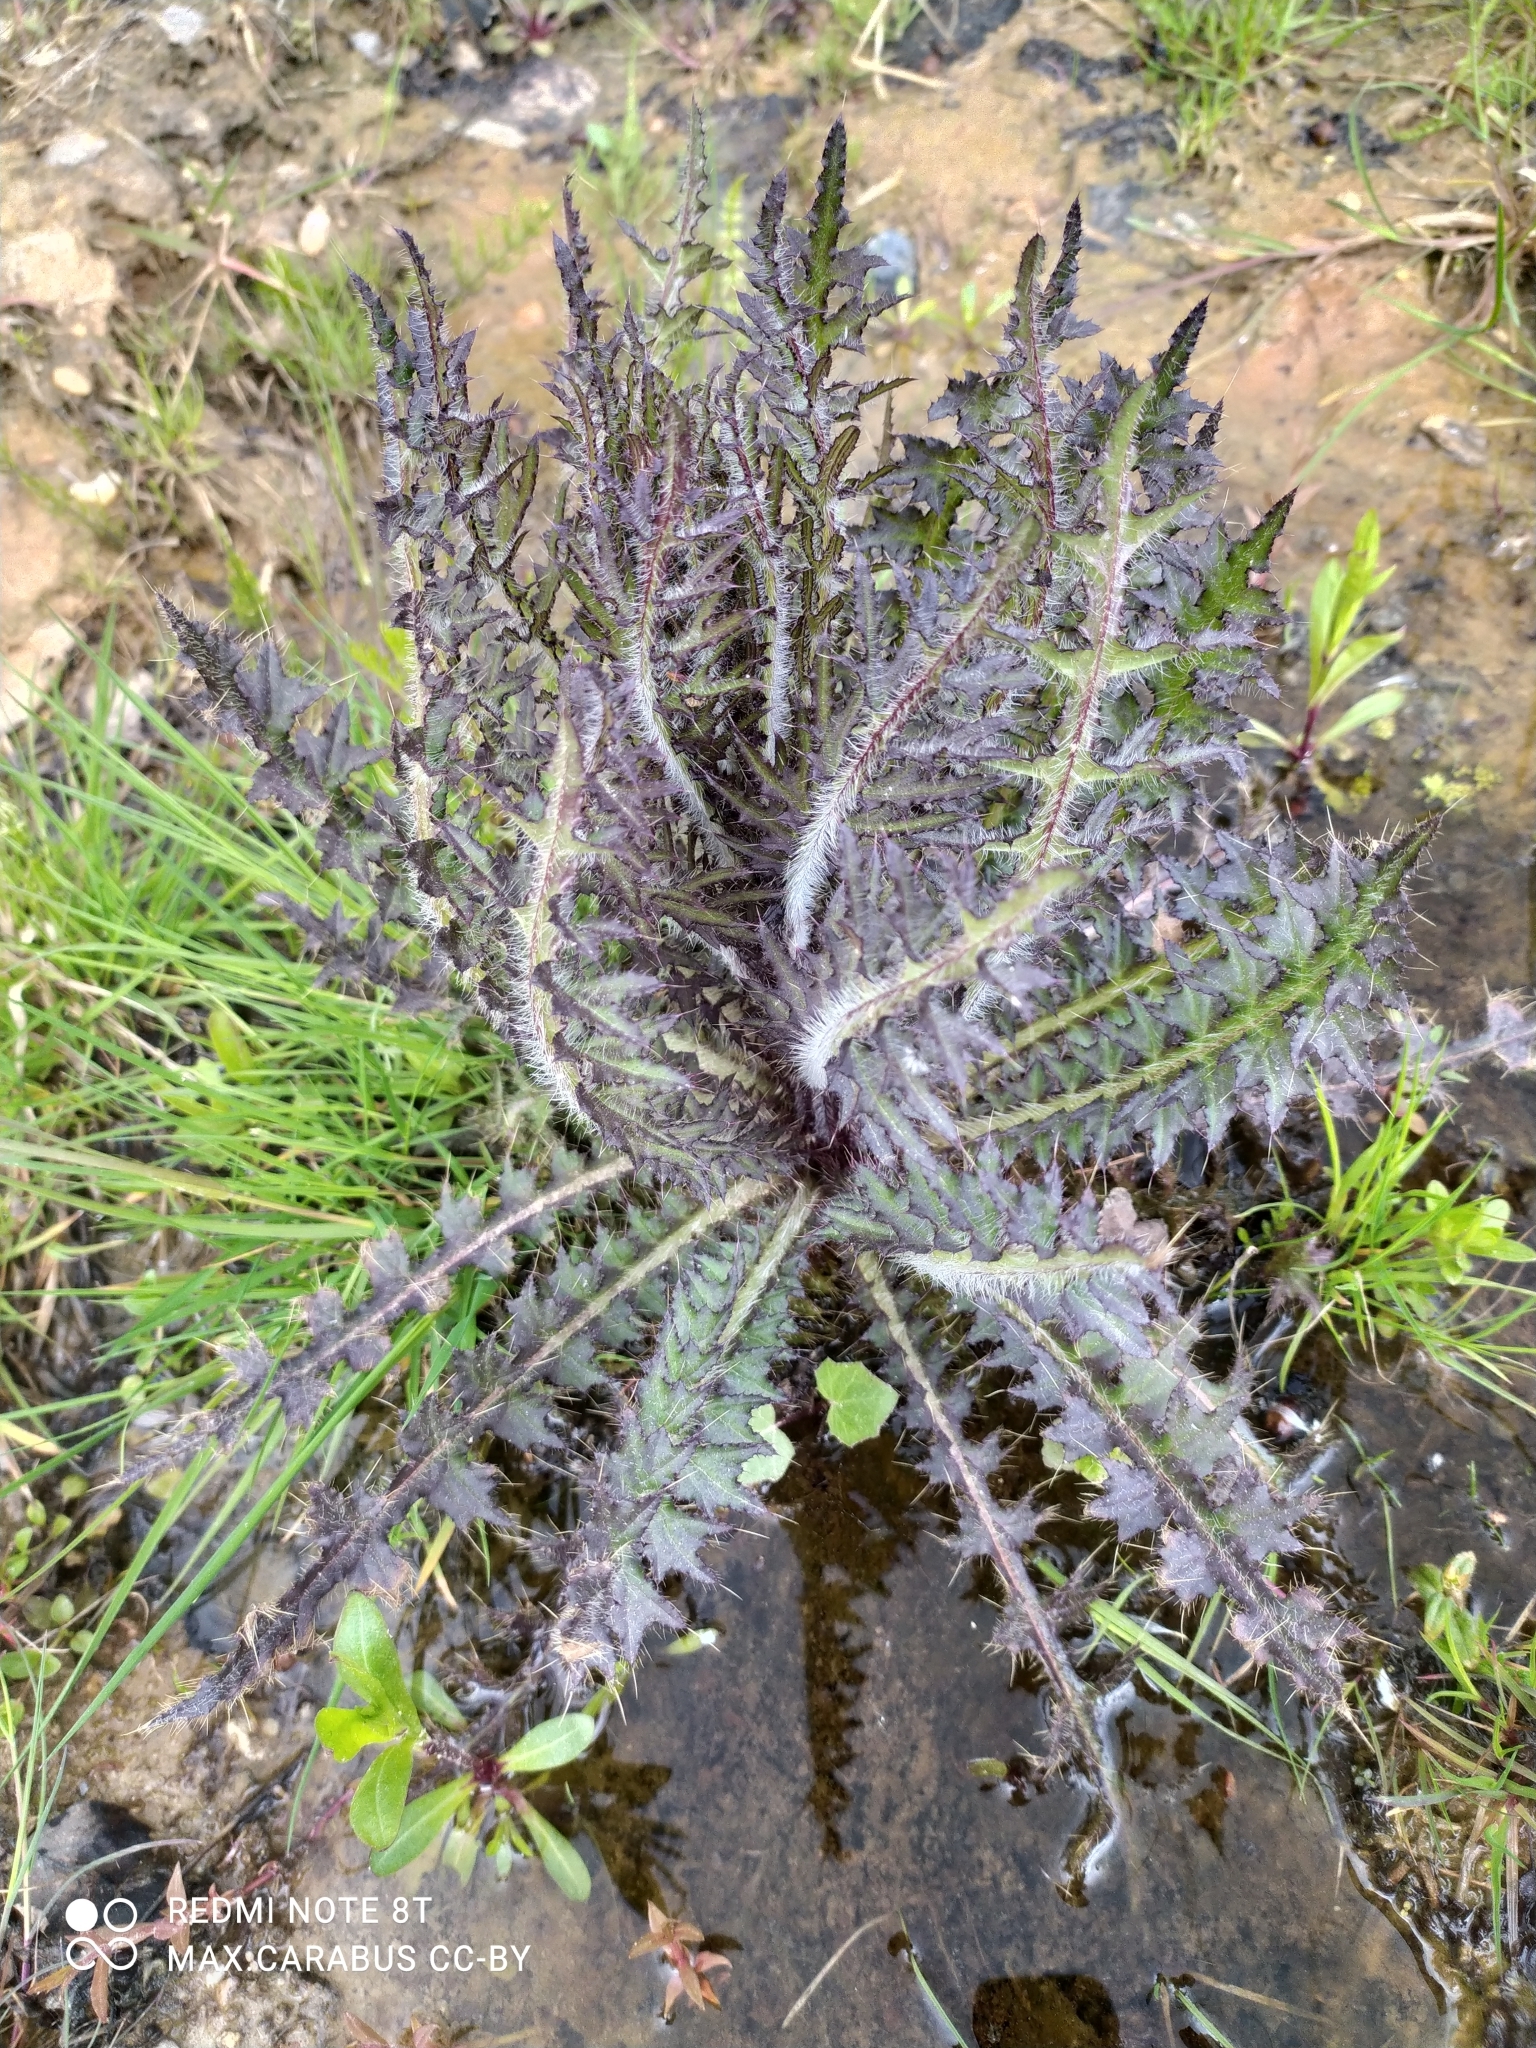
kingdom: Plantae
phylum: Tracheophyta
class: Magnoliopsida
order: Asterales
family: Asteraceae
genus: Cirsium
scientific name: Cirsium palustre
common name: Marsh thistle
